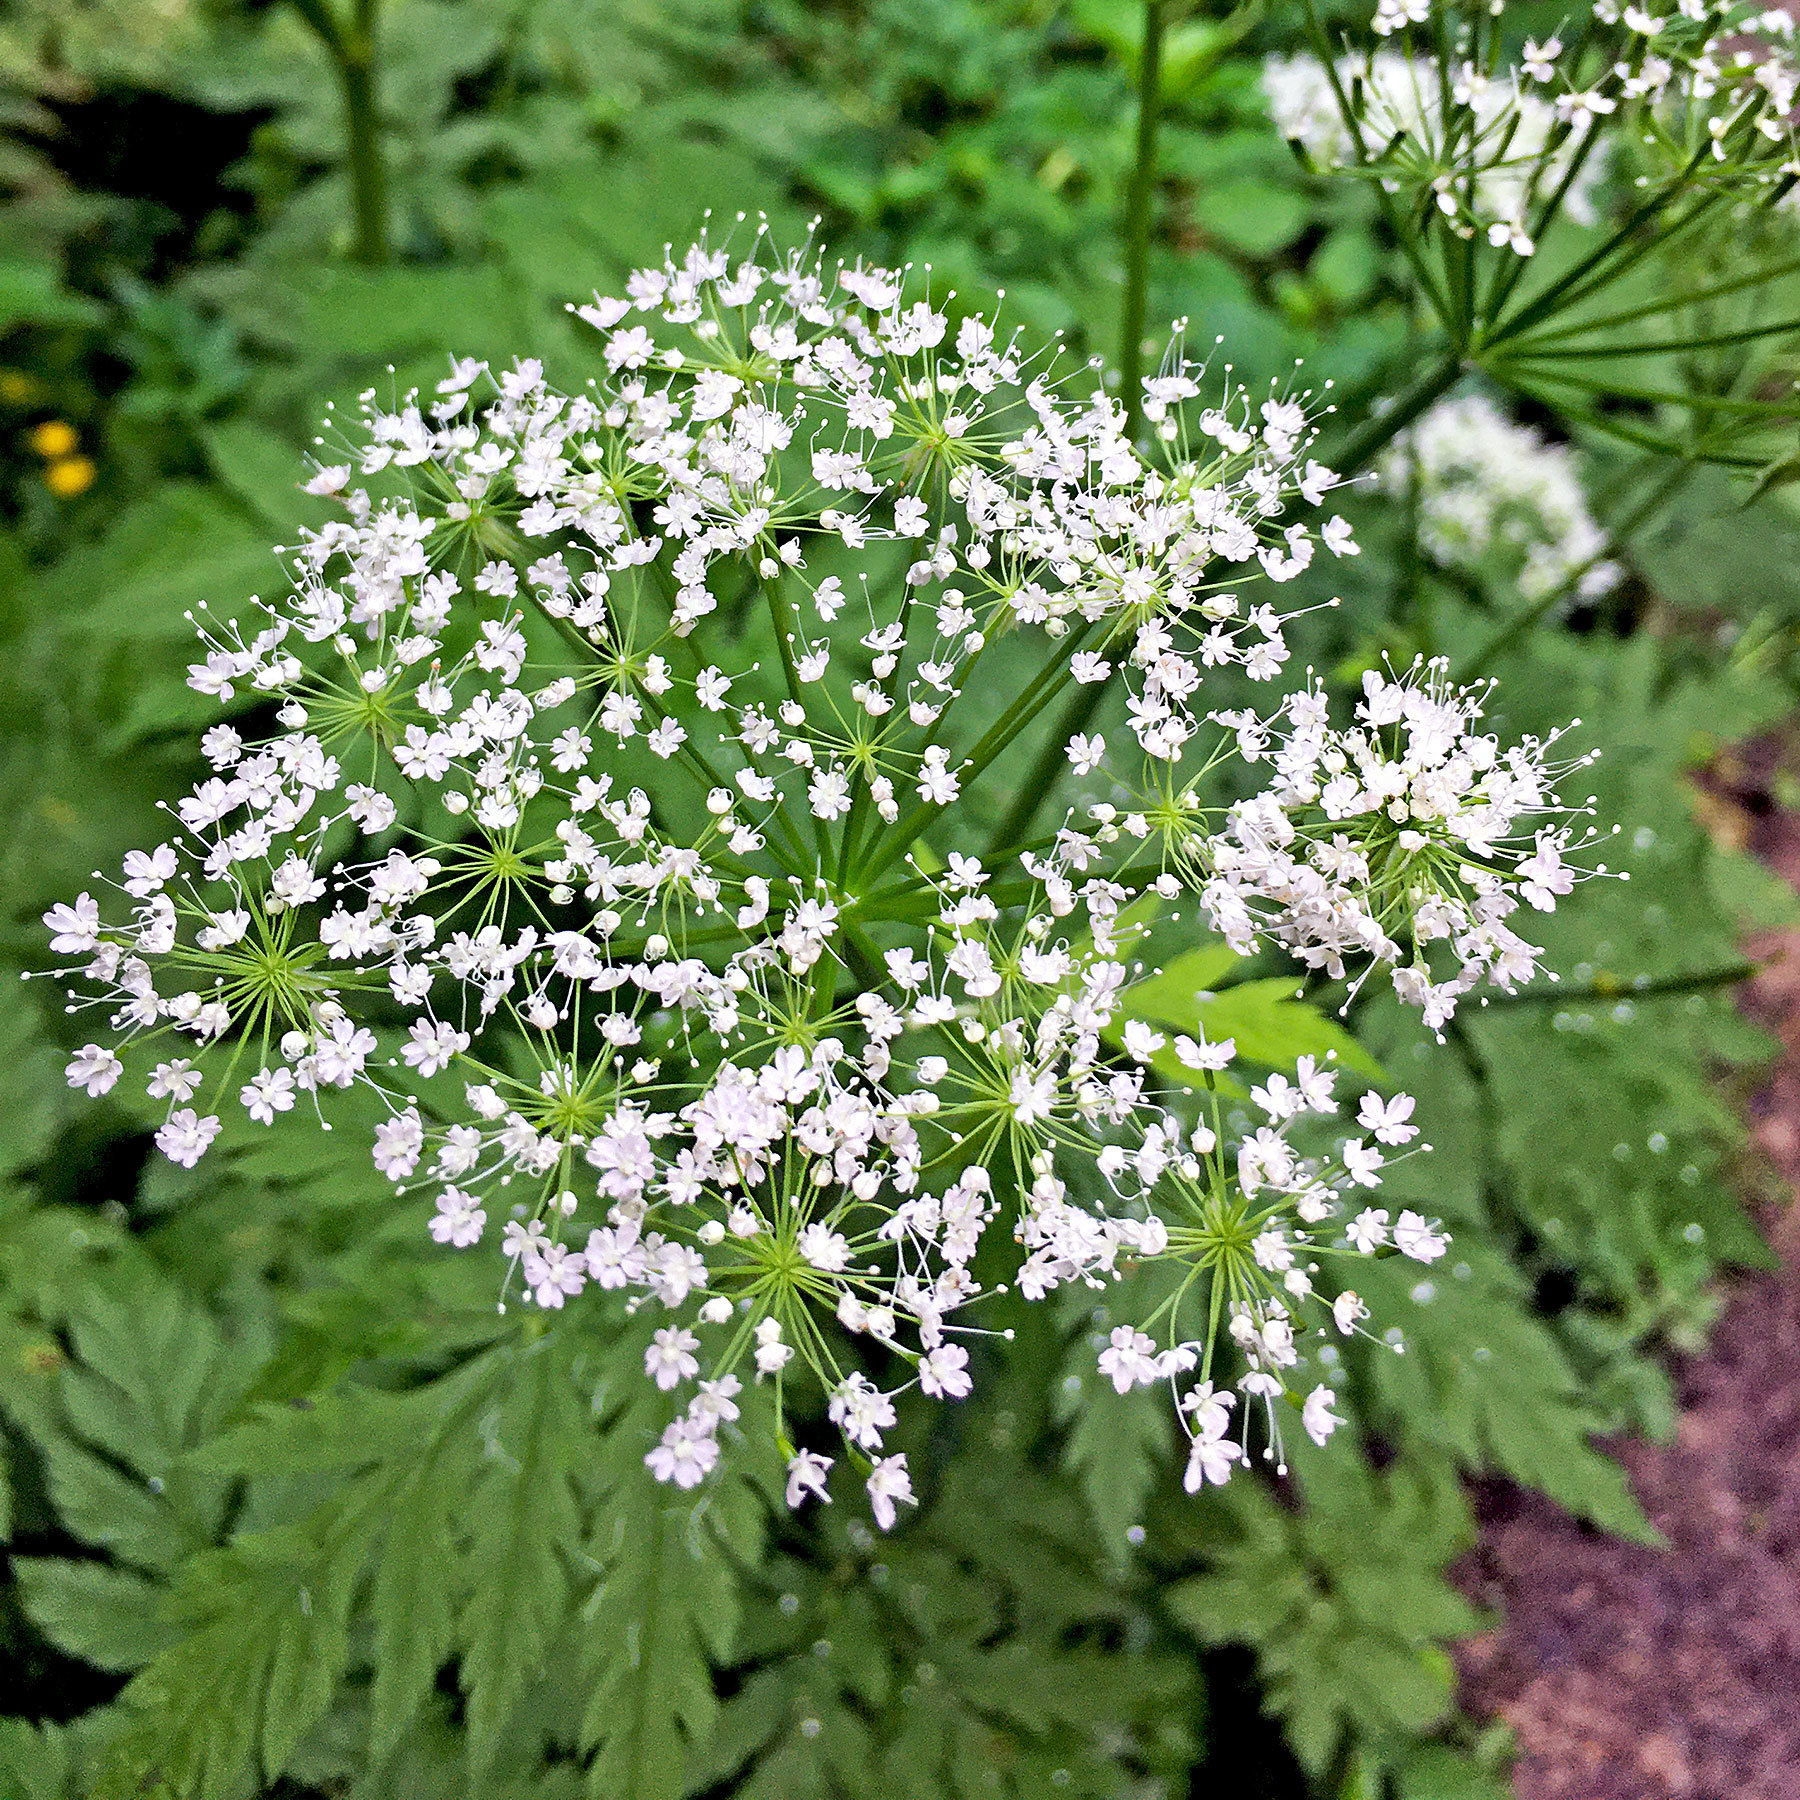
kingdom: Plantae
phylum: Tracheophyta
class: Magnoliopsida
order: Apiales
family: Apiaceae
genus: Chaerophyllum
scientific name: Chaerophyllum hirsutum
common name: Hairy chervil
